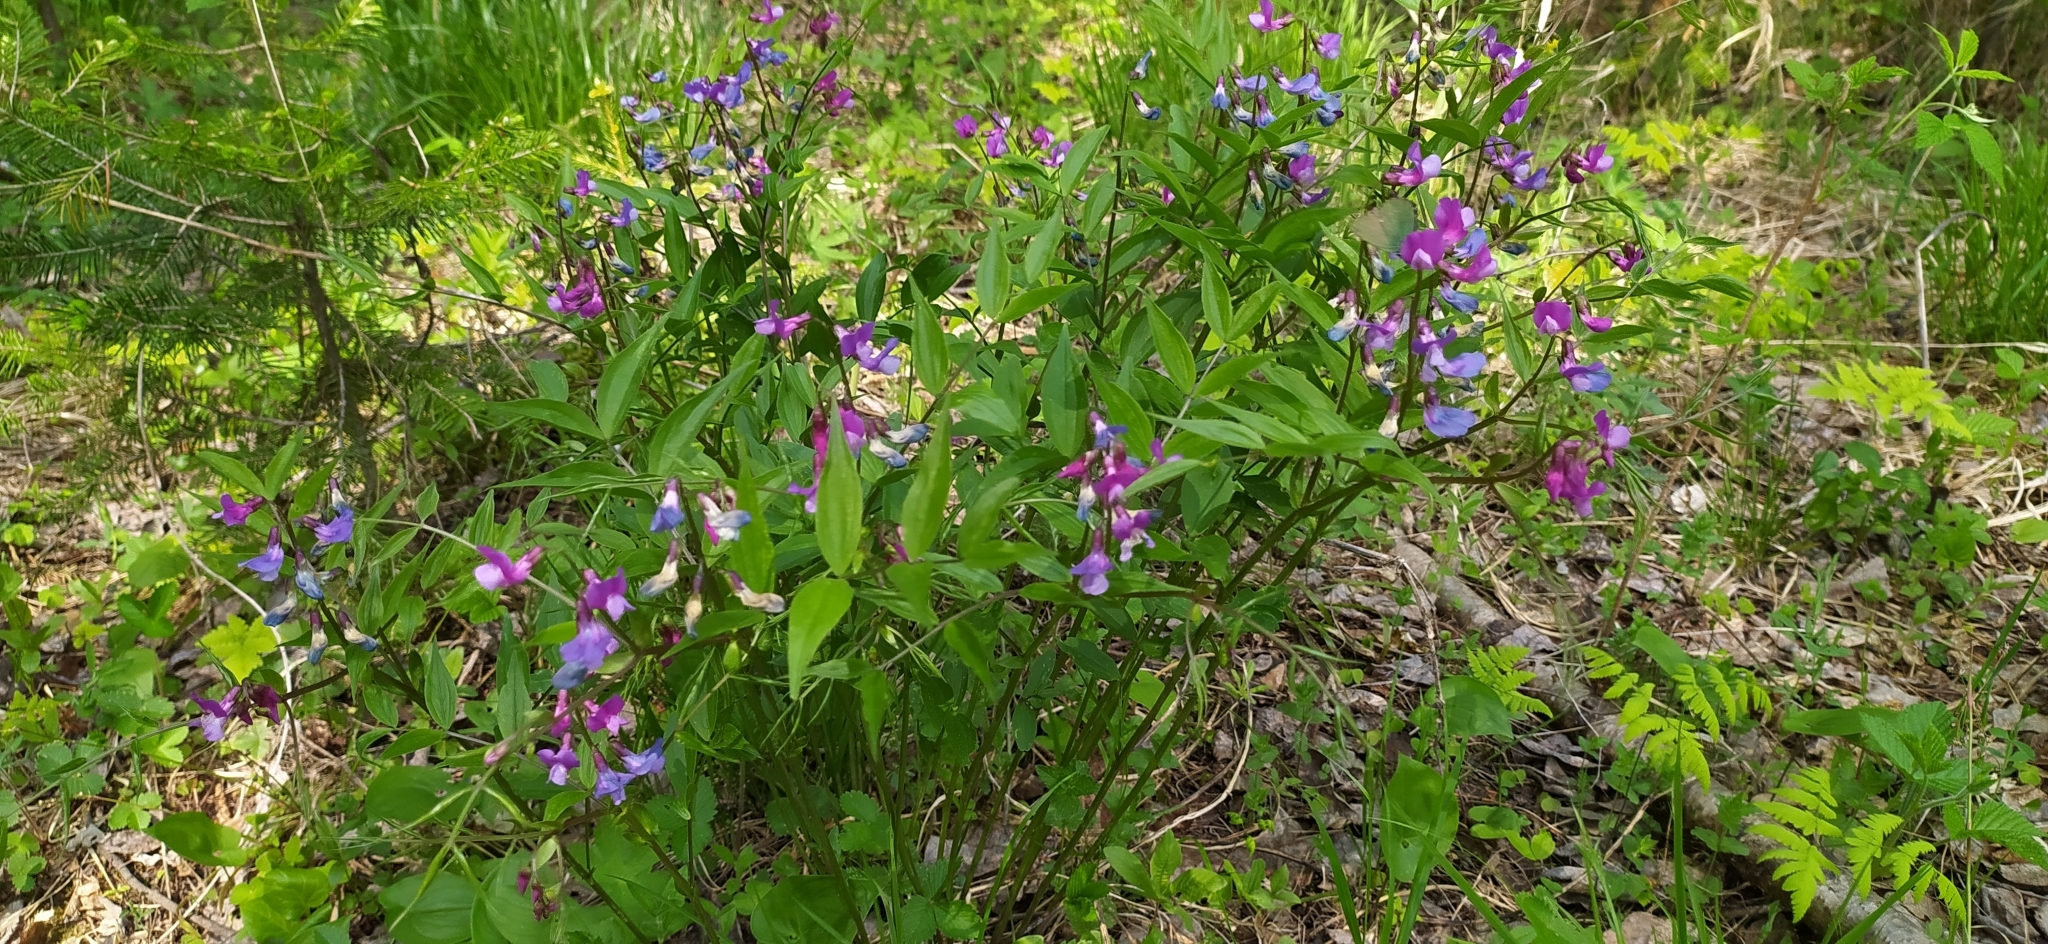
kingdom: Plantae
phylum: Tracheophyta
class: Magnoliopsida
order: Fabales
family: Fabaceae
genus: Lathyrus
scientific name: Lathyrus vernus
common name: Spring pea
